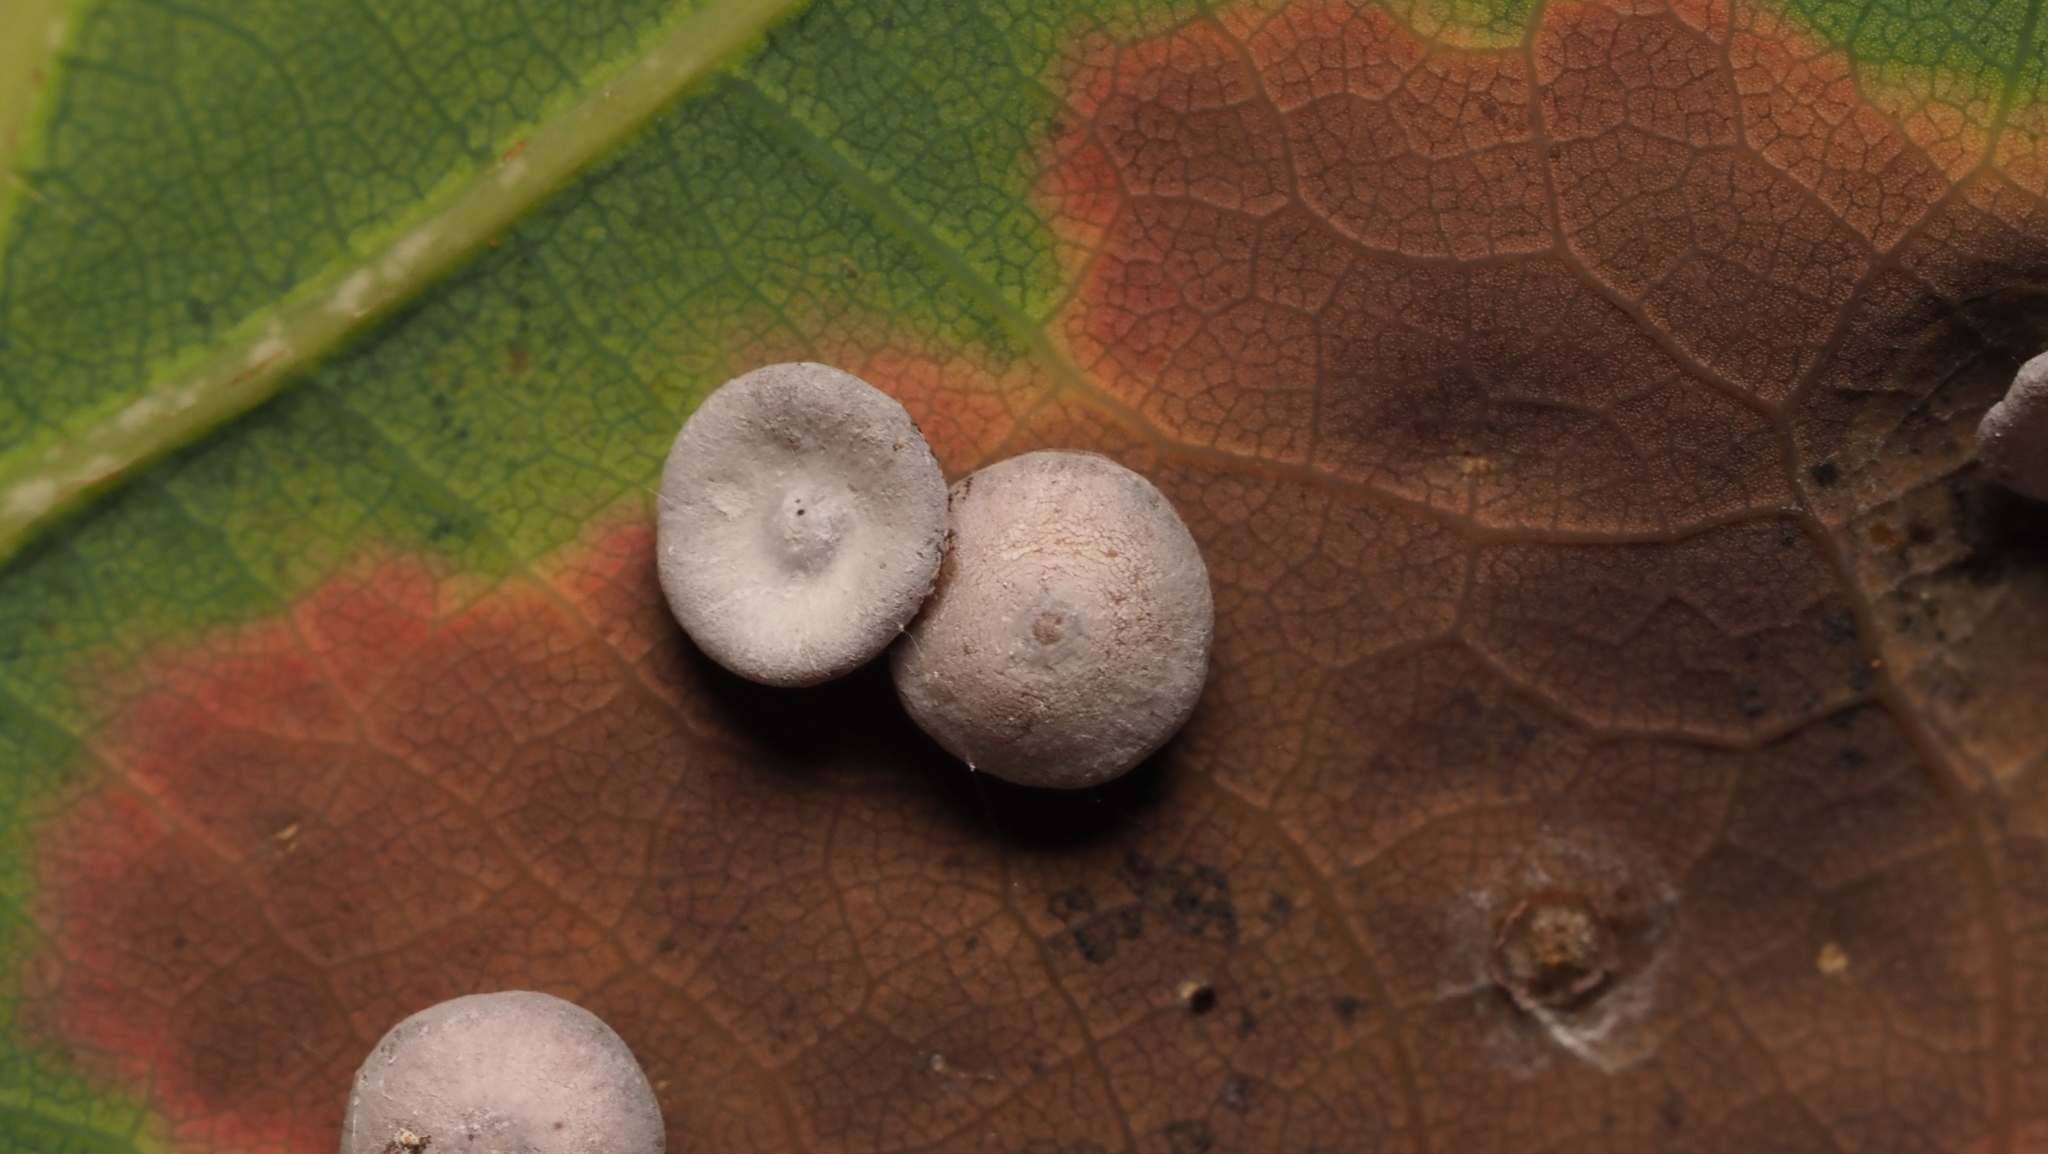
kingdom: Animalia
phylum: Arthropoda
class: Insecta
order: Hymenoptera
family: Cynipidae
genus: Phylloteras
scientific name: Phylloteras poculum
